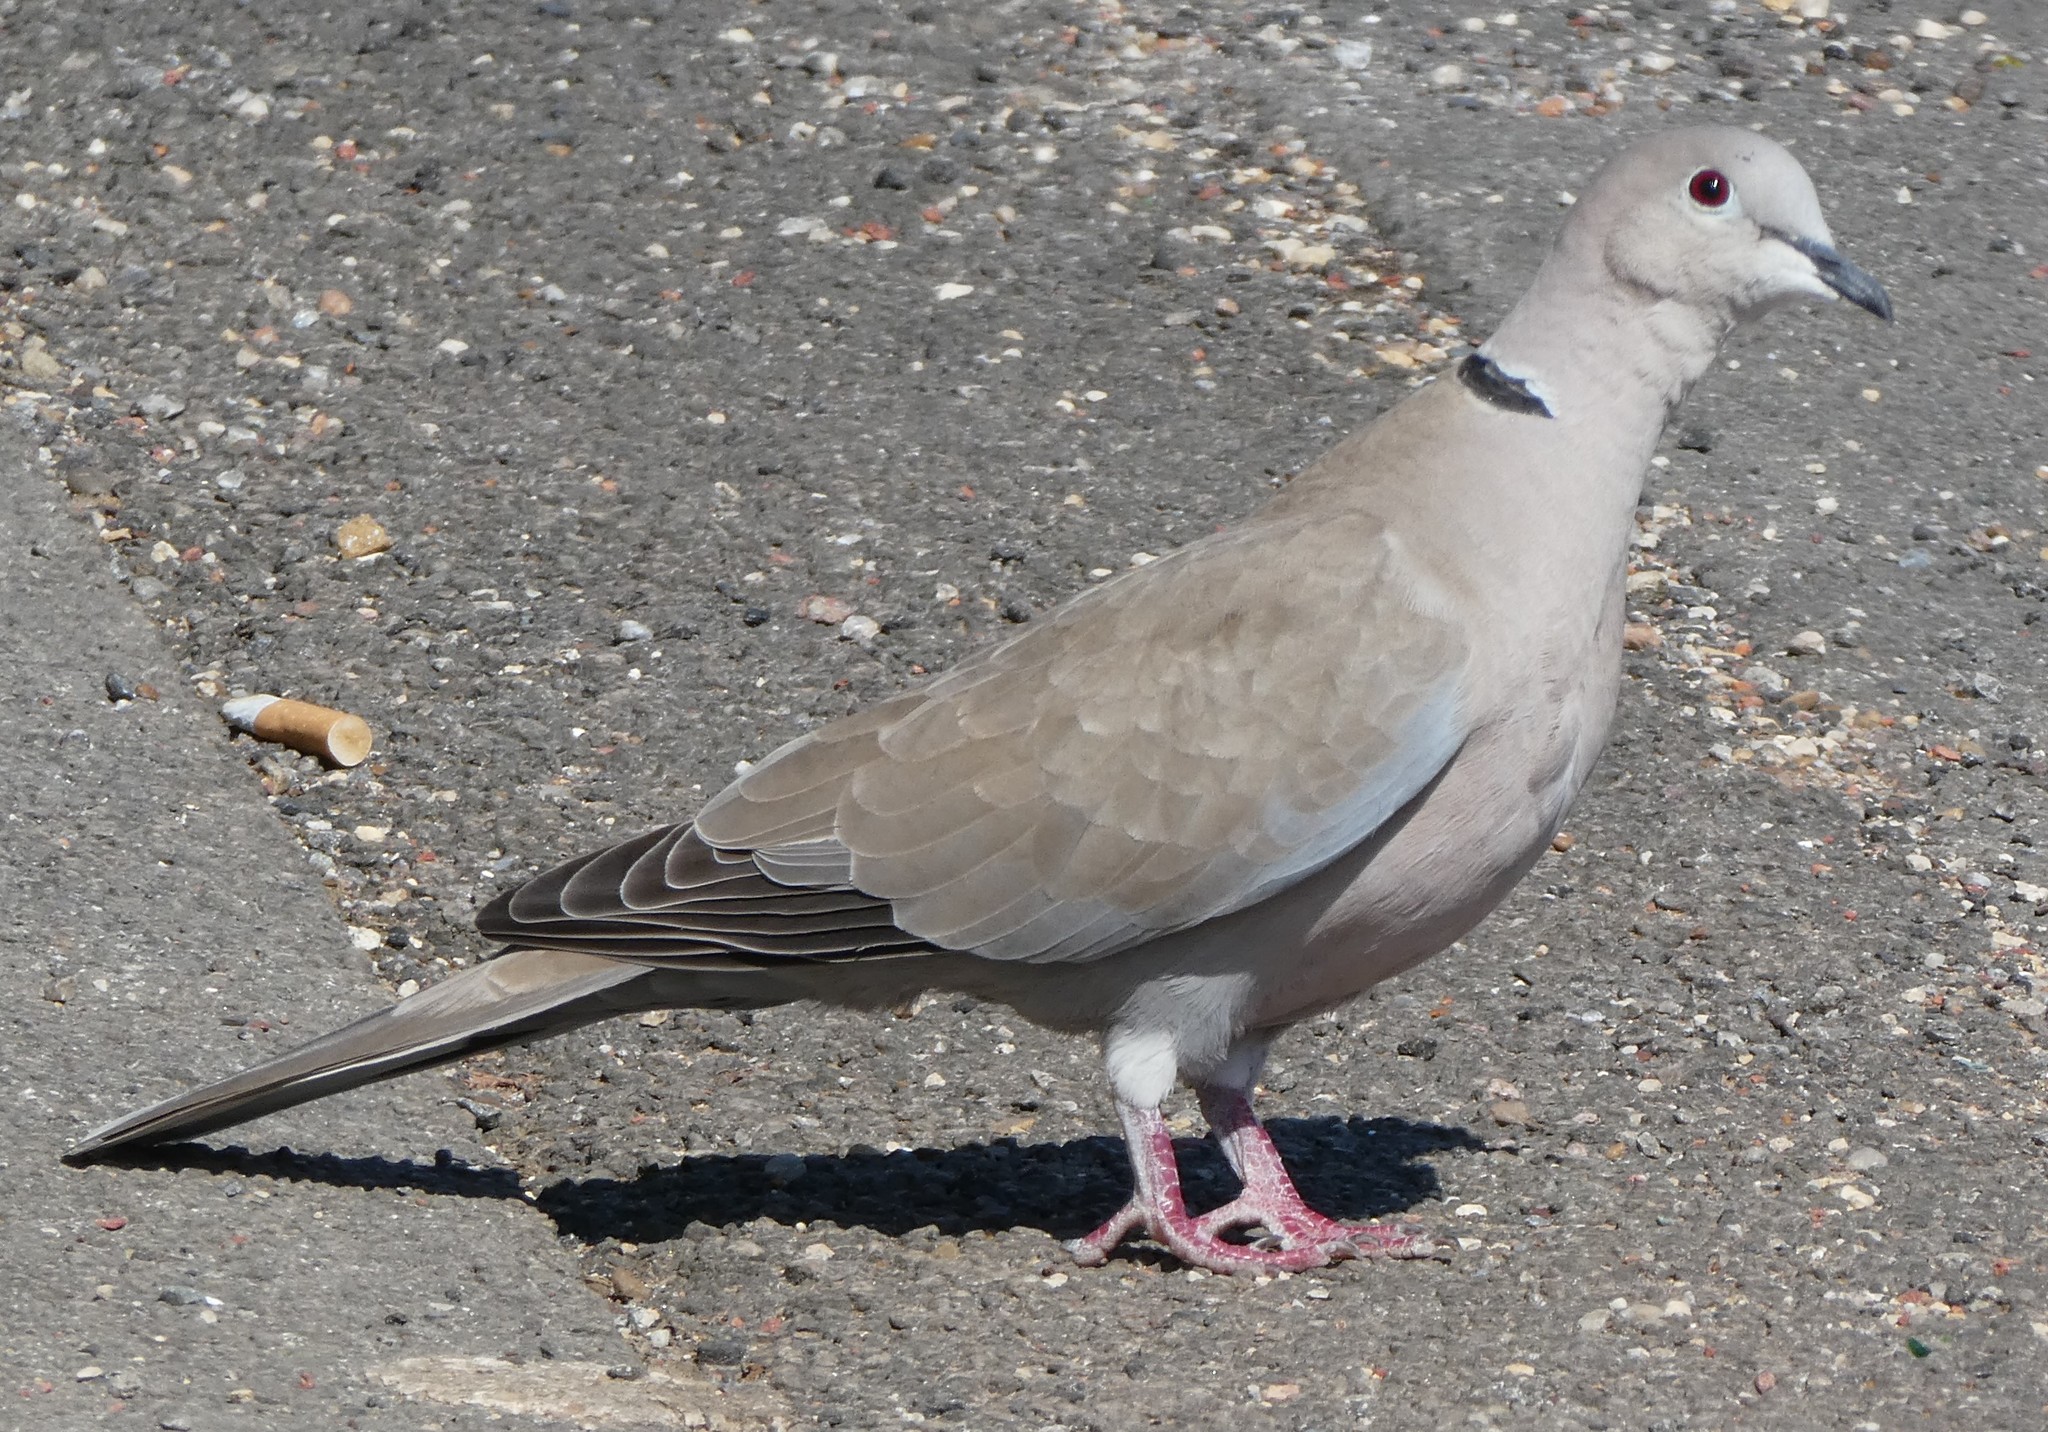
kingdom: Animalia
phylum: Chordata
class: Aves
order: Columbiformes
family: Columbidae
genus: Streptopelia
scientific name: Streptopelia decaocto
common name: Eurasian collared dove
